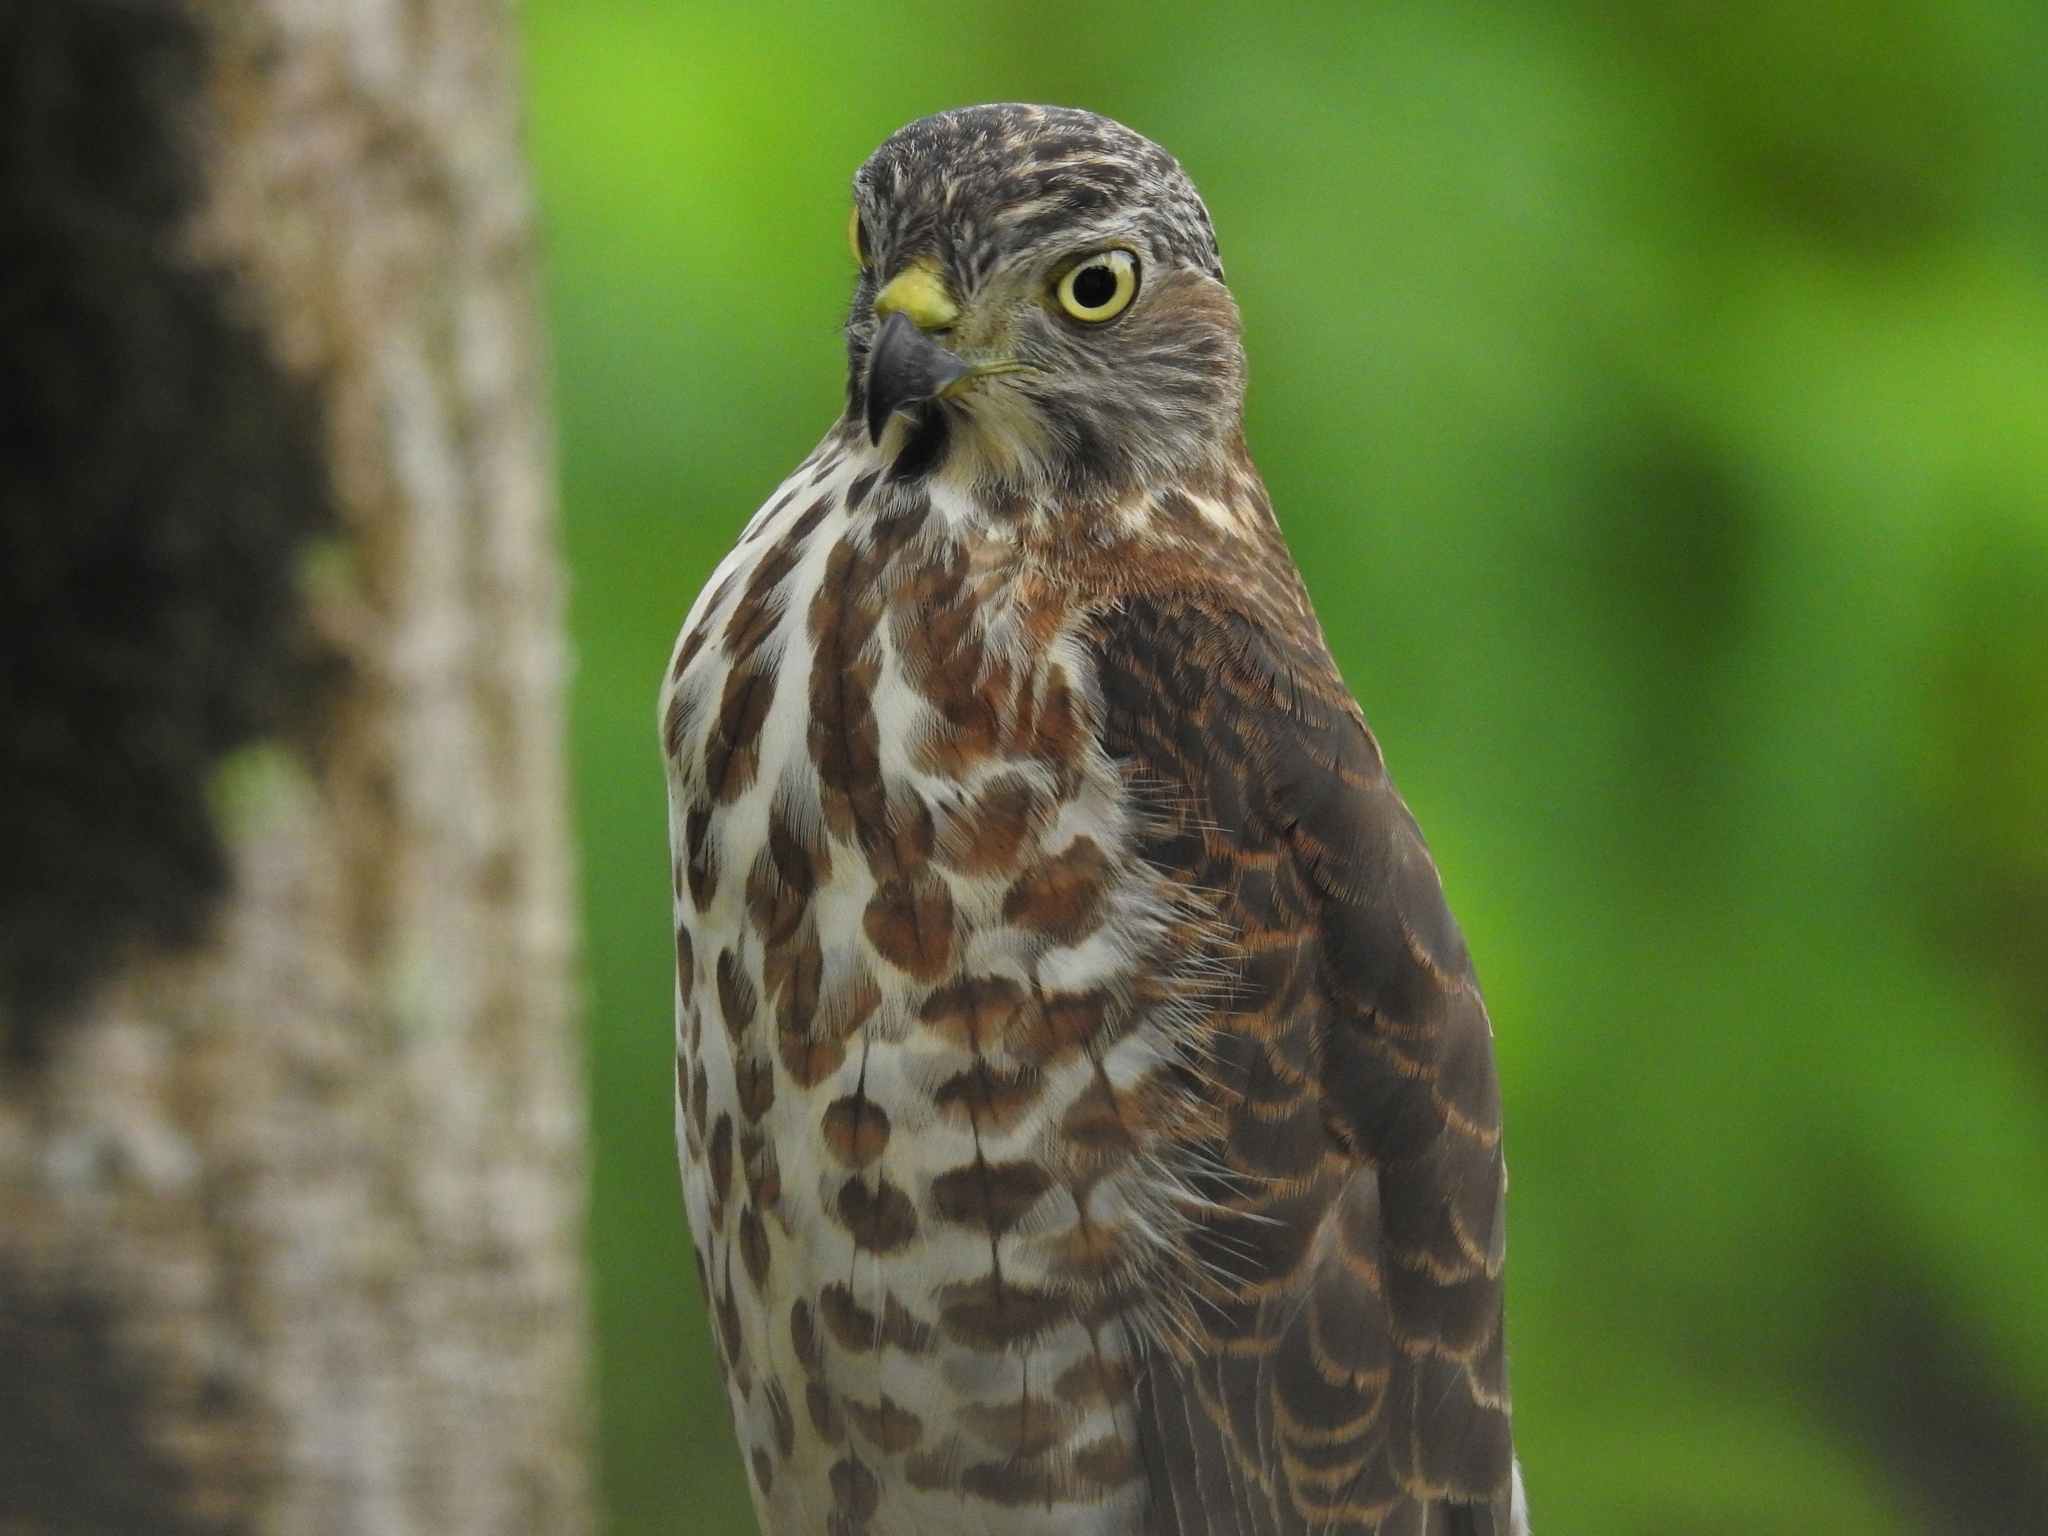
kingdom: Animalia
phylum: Chordata
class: Aves
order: Accipitriformes
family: Accipitridae
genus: Accipiter
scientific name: Accipiter badius
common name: Shikra
